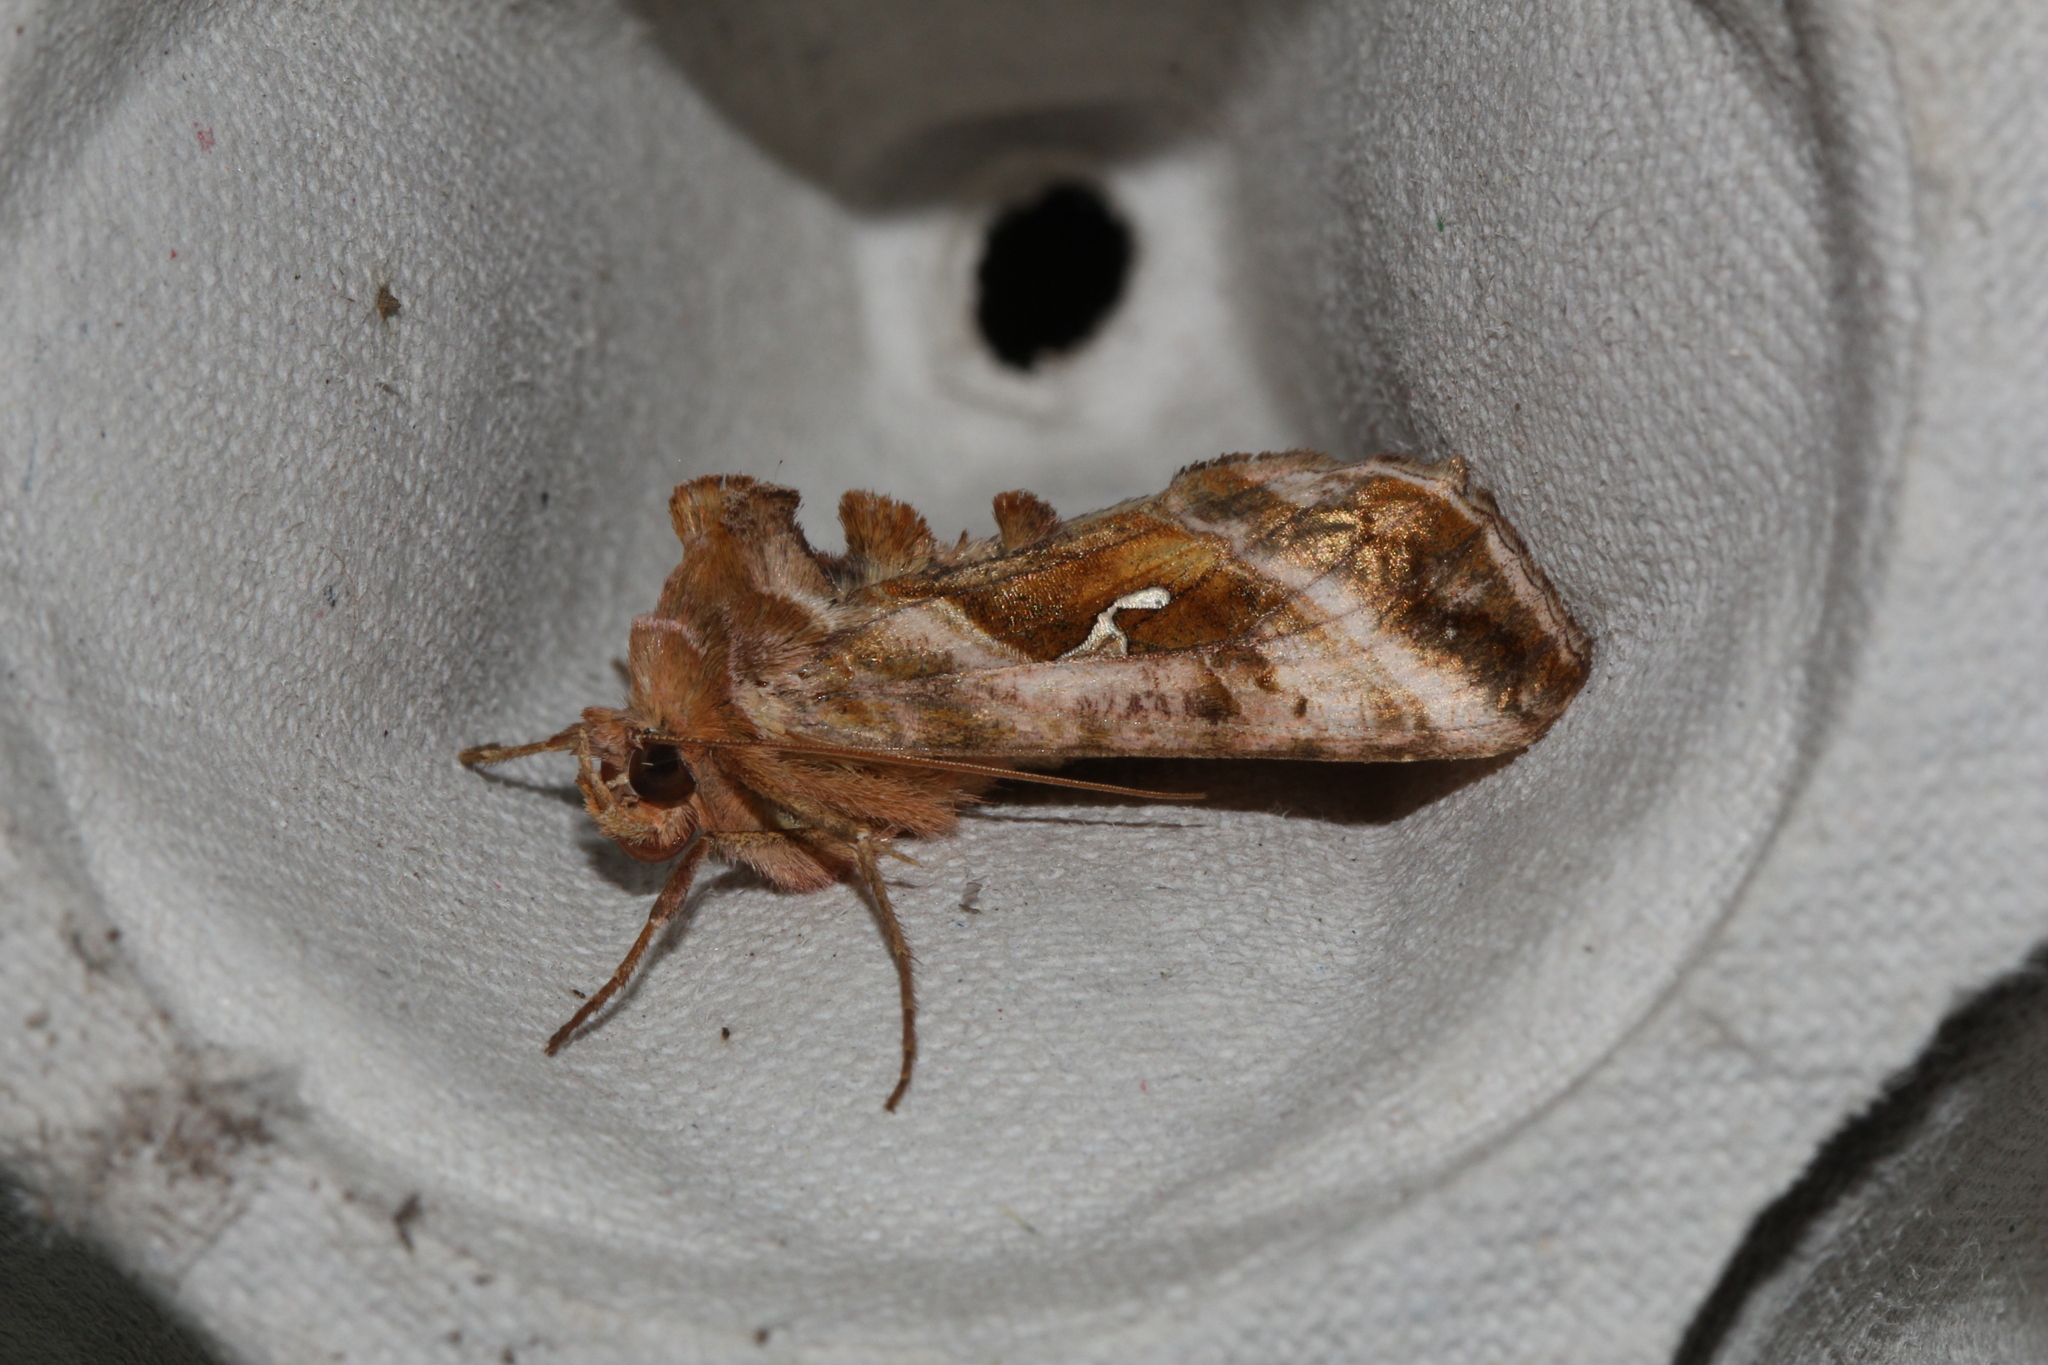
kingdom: Animalia
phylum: Arthropoda
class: Insecta
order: Lepidoptera
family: Noctuidae
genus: Autographa
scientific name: Autographa jota
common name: Plain golden y
